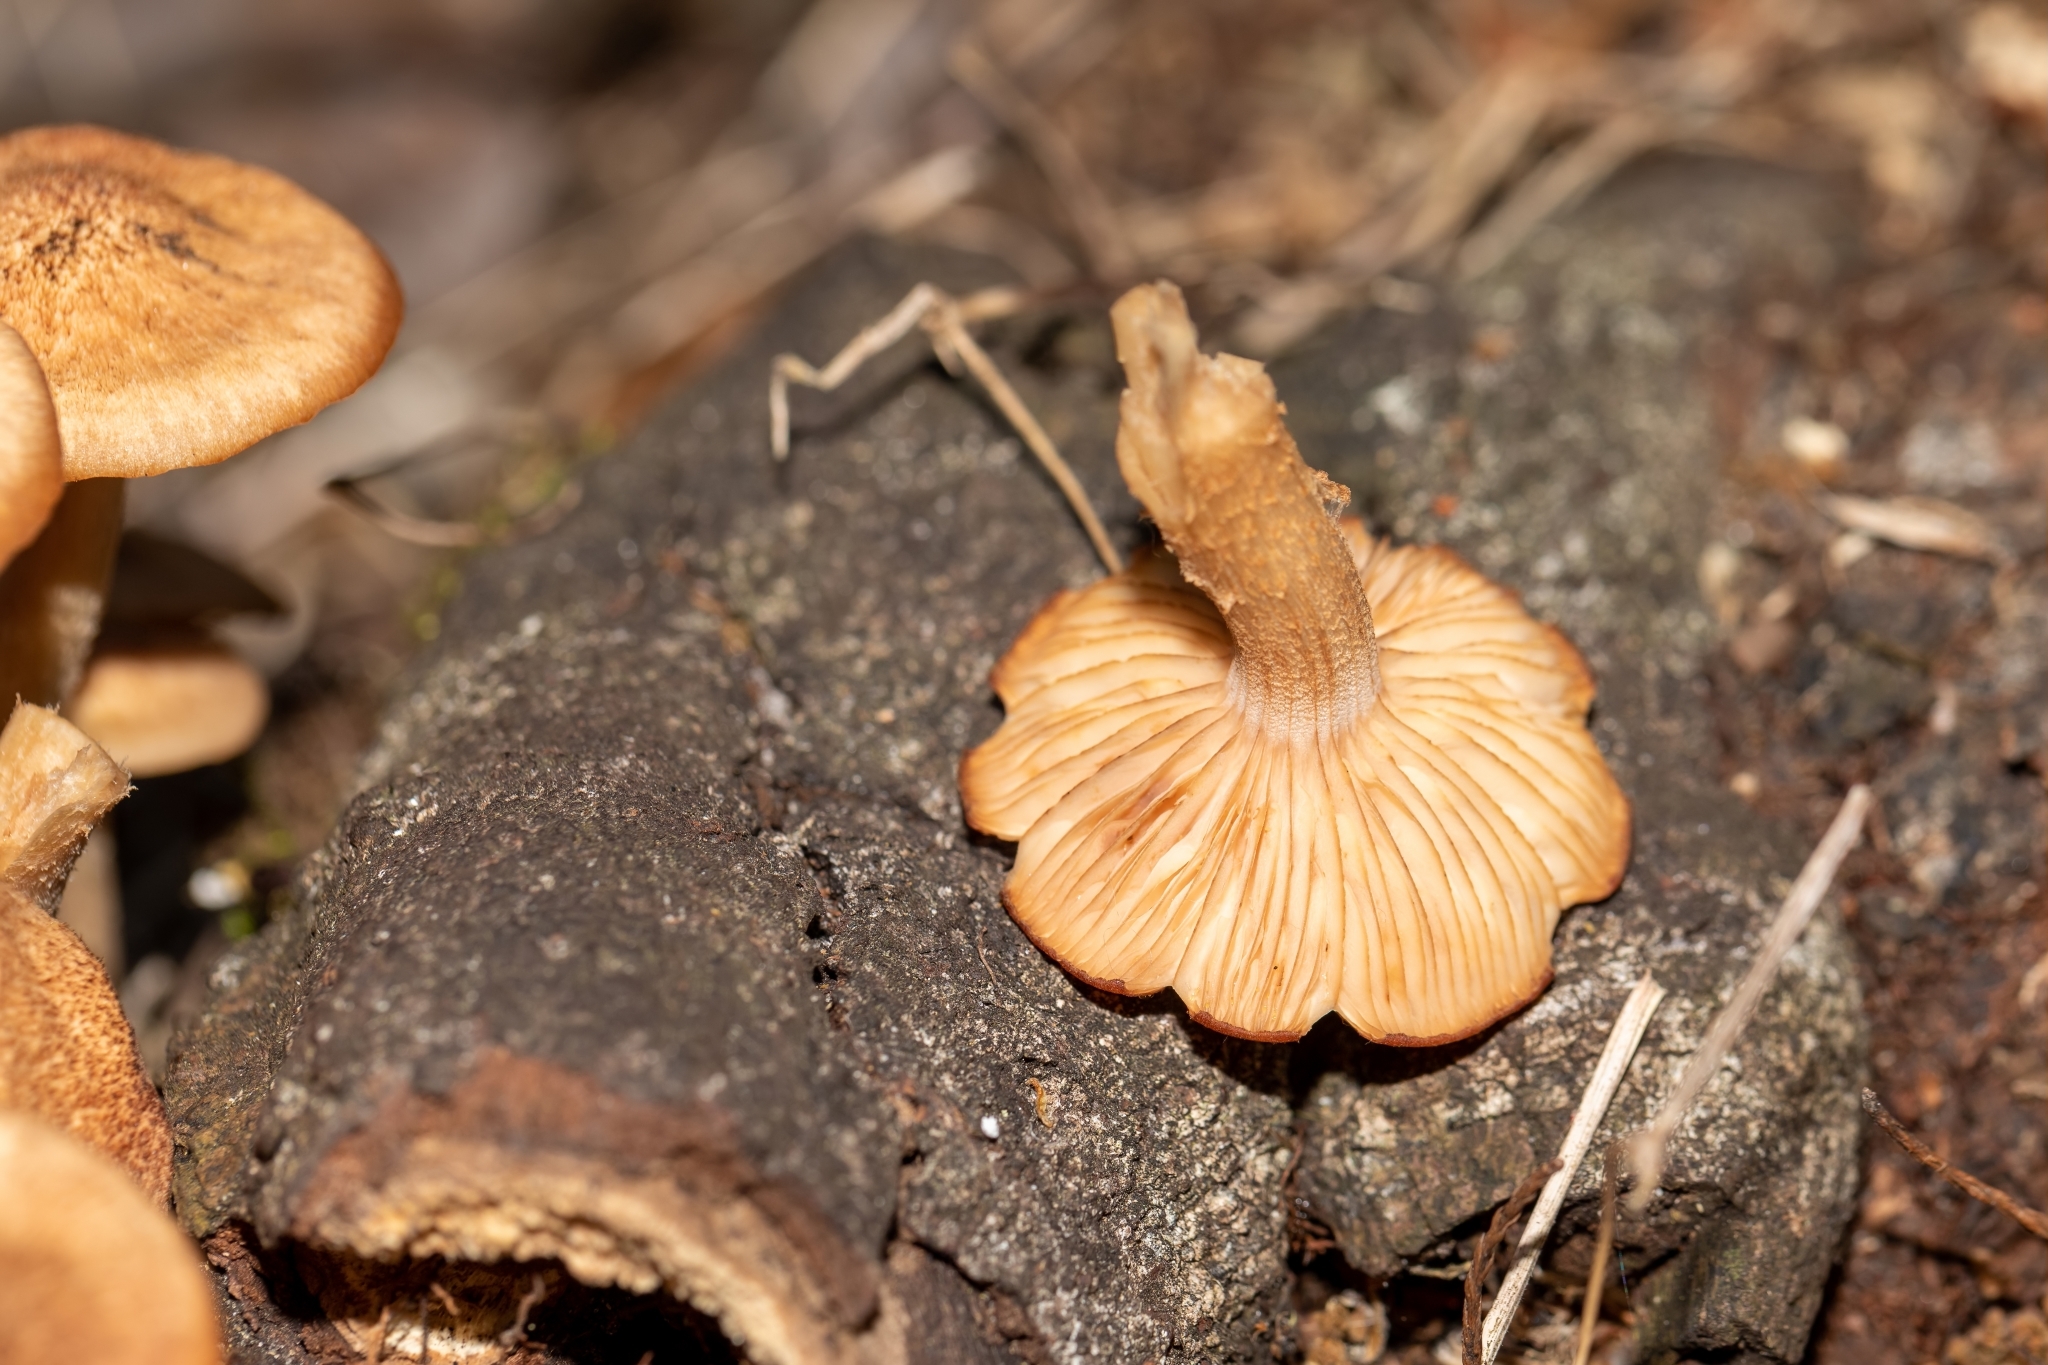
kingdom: Fungi
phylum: Basidiomycota
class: Agaricomycetes
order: Agaricales
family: Physalacriaceae
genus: Desarmillaria
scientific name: Desarmillaria caespitosa
